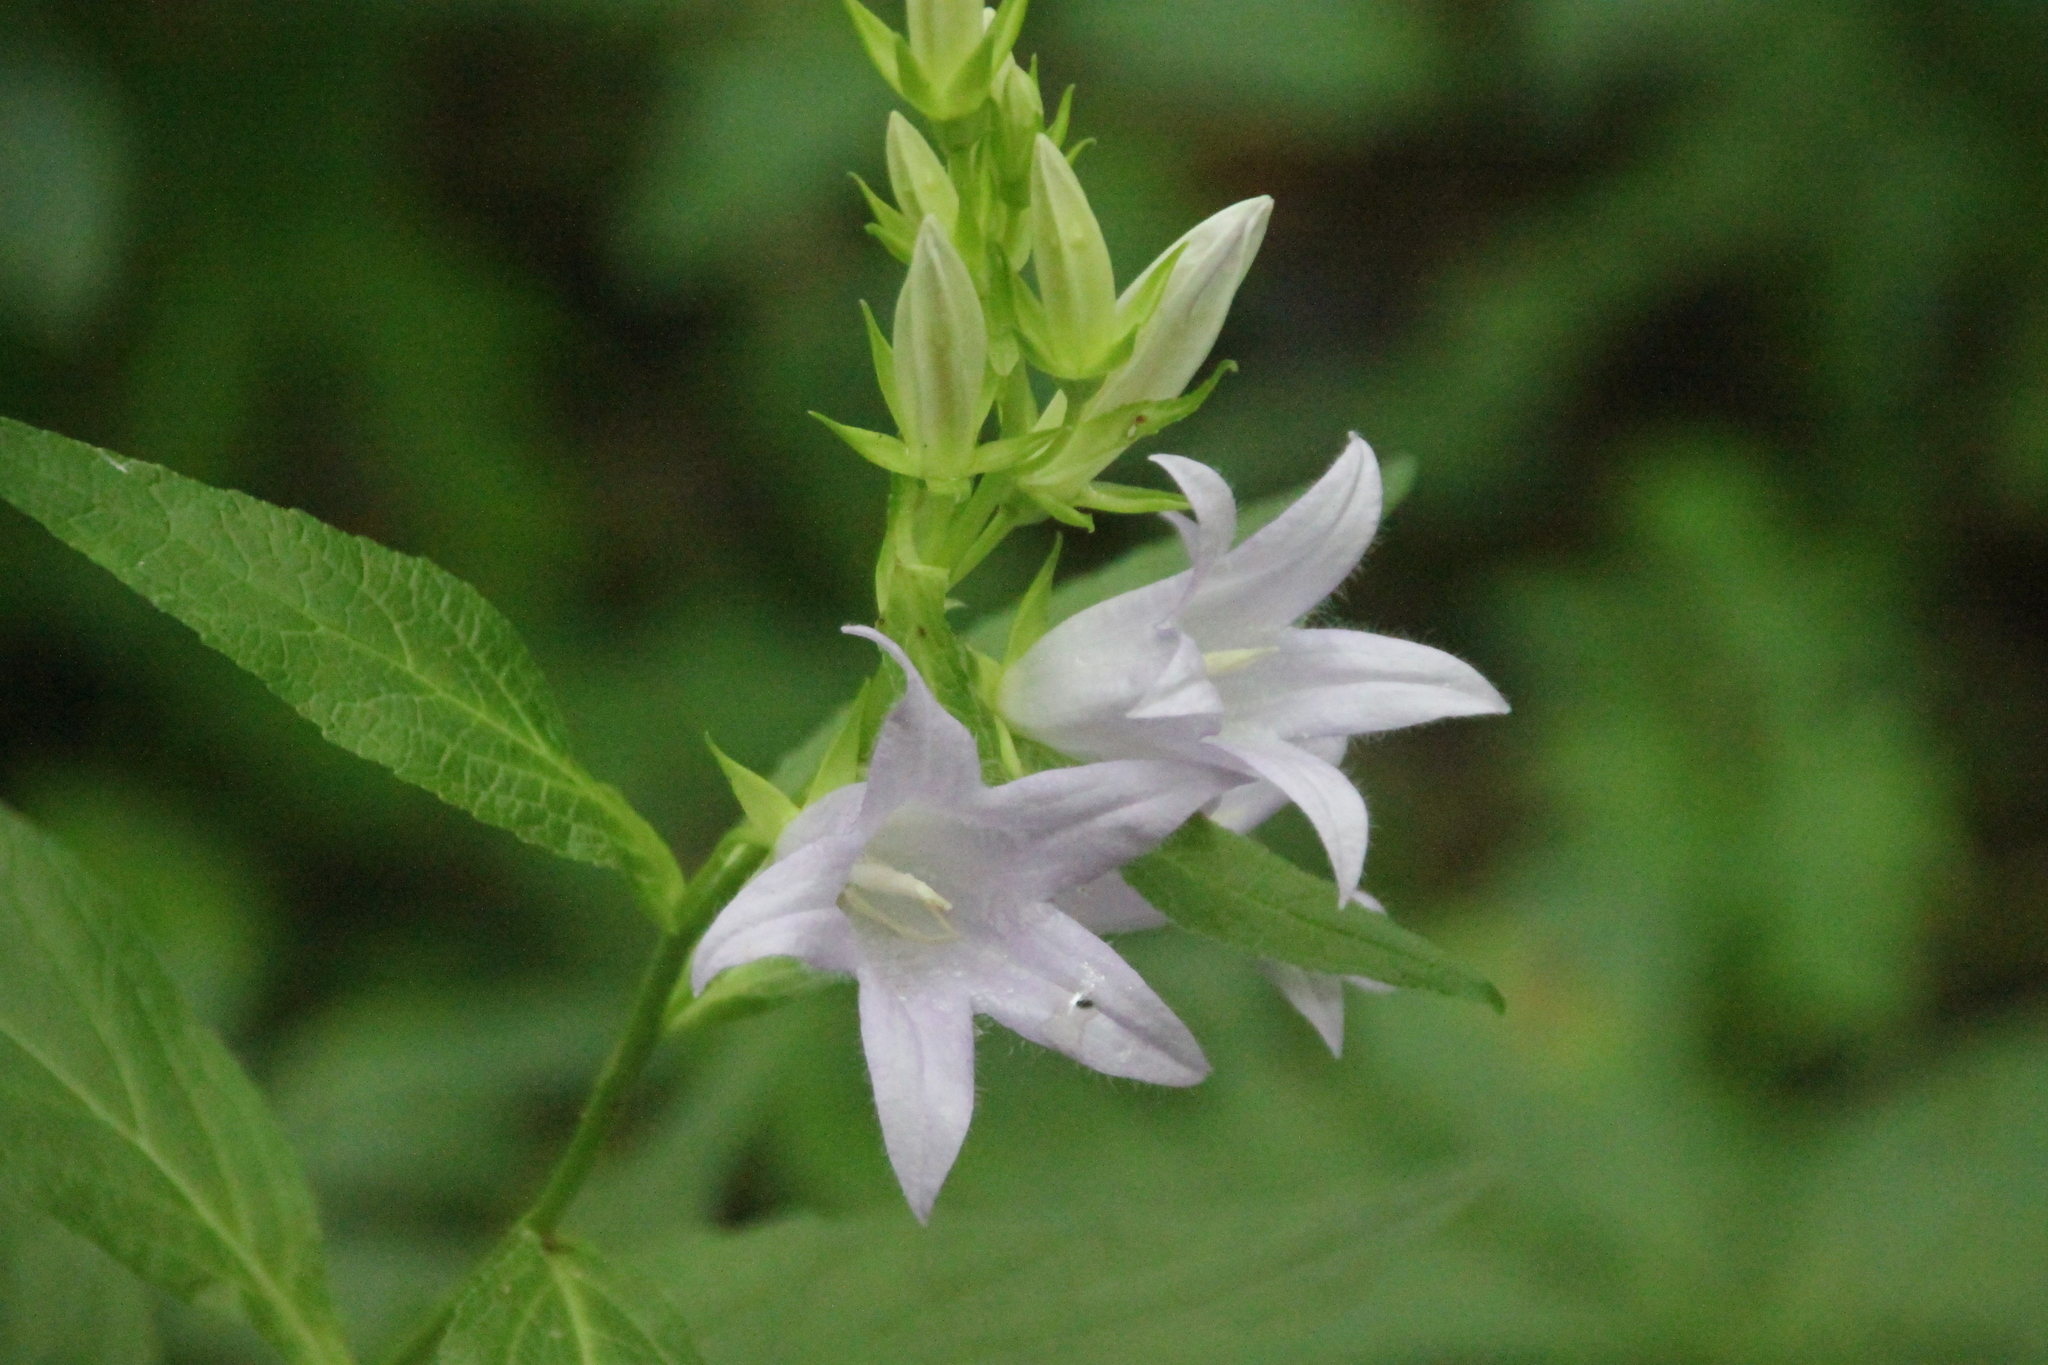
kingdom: Plantae
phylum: Tracheophyta
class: Magnoliopsida
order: Asterales
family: Campanulaceae
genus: Campanula
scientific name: Campanula latifolia
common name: Giant bellflower
